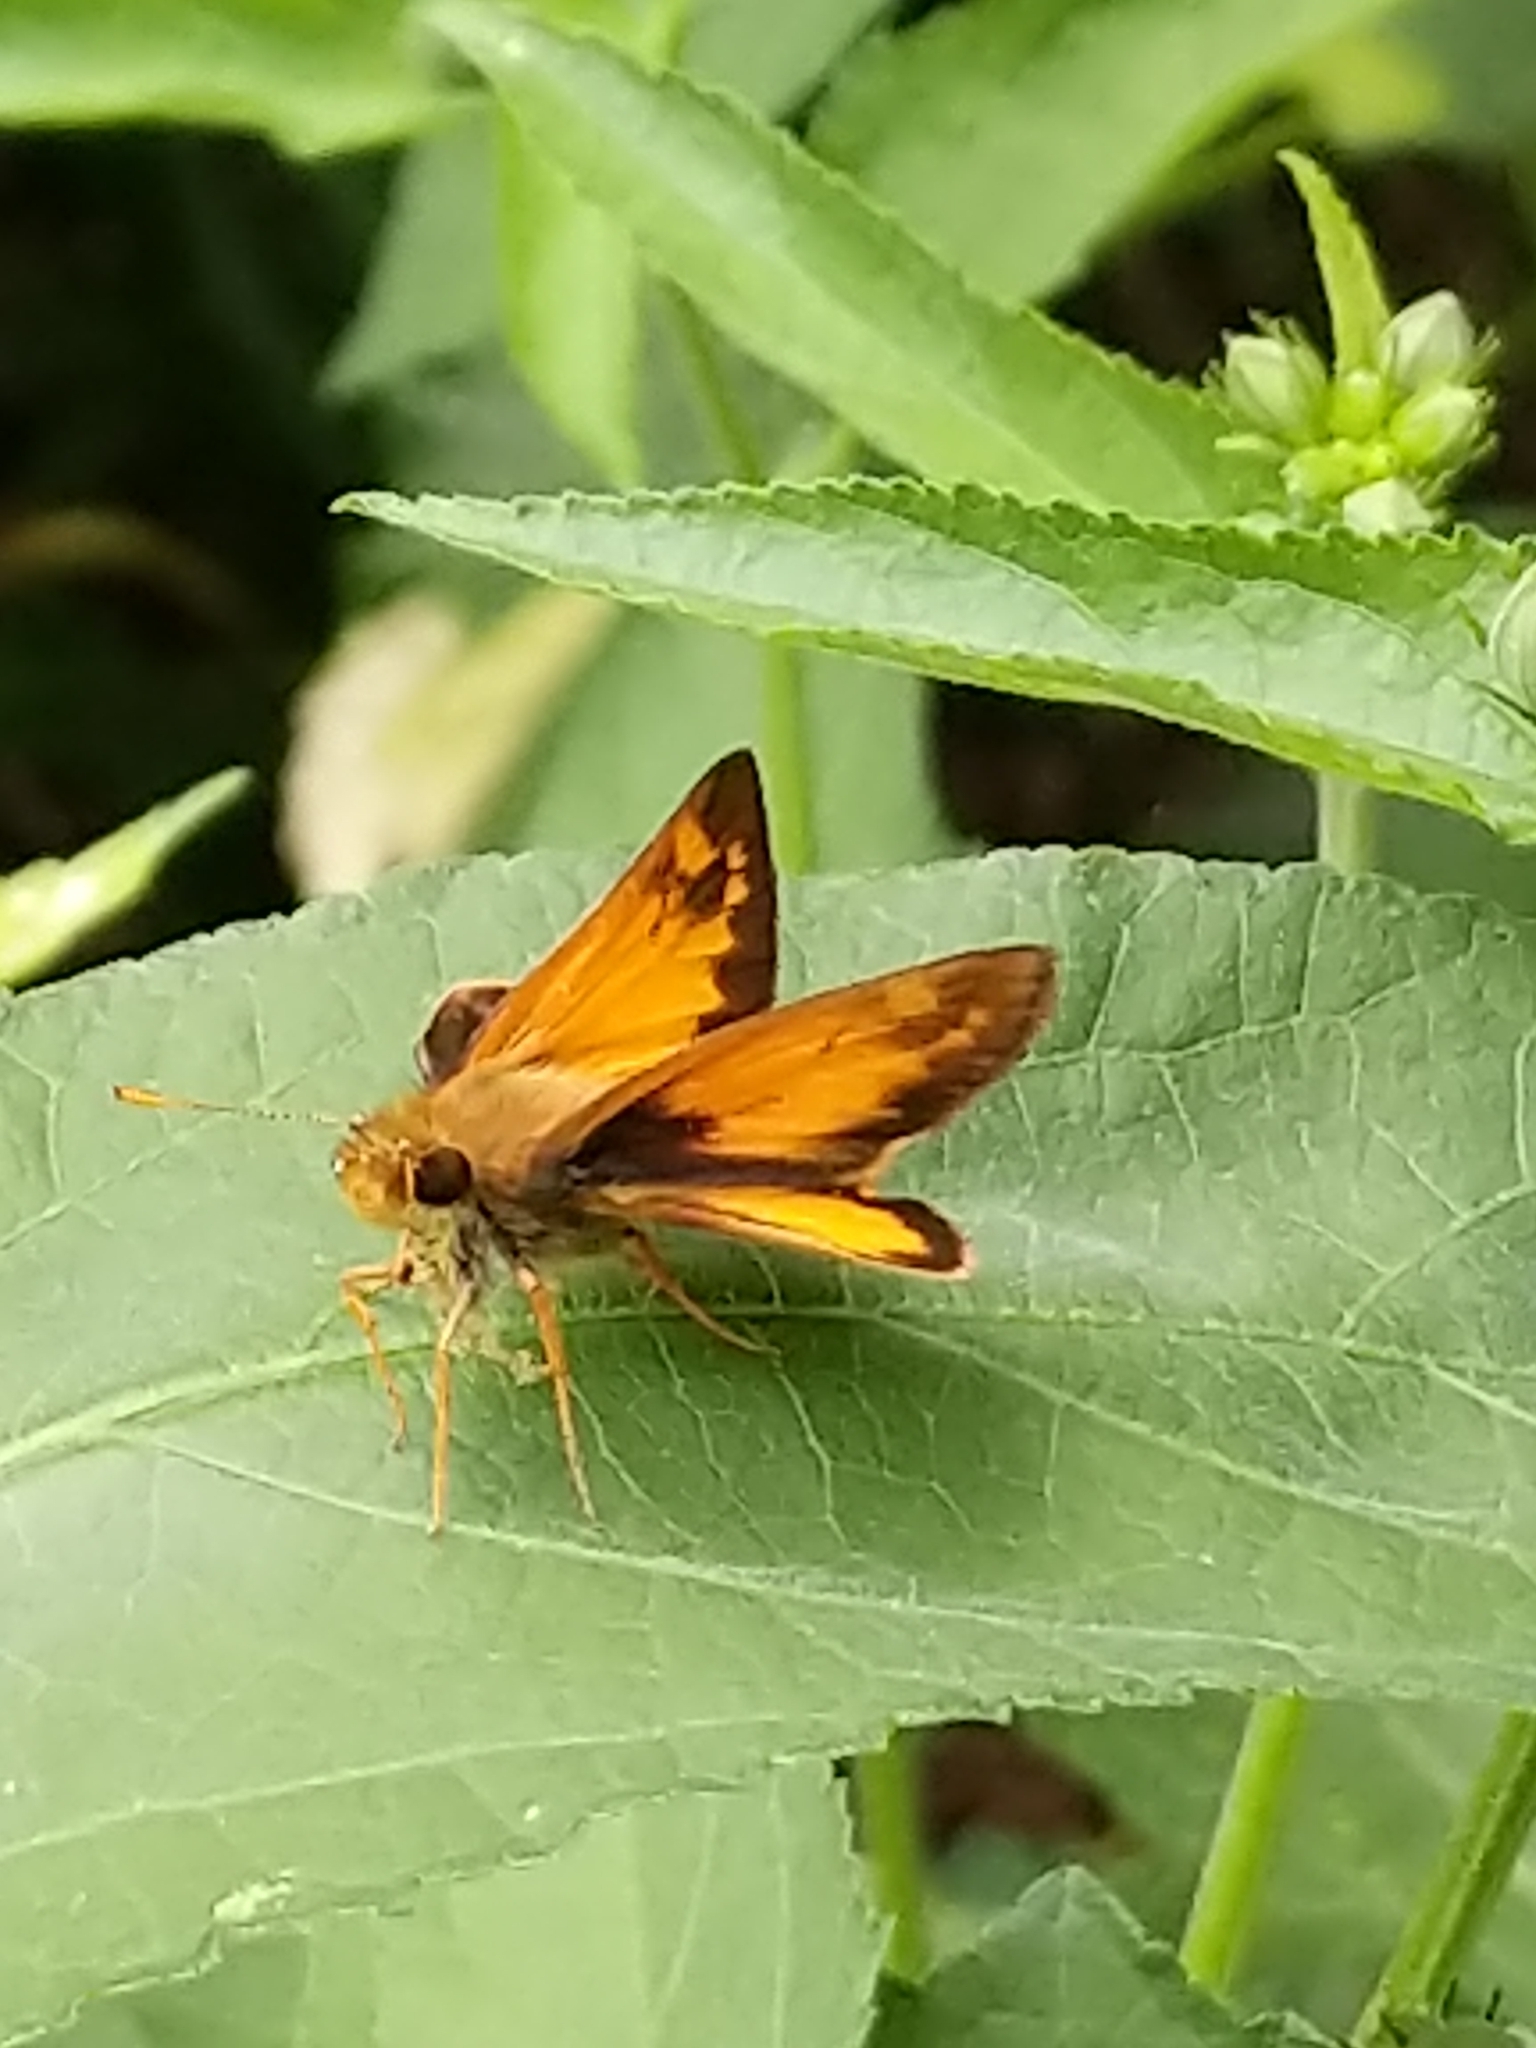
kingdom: Animalia
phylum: Arthropoda
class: Insecta
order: Lepidoptera
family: Hesperiidae
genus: Lon
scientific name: Lon zabulon
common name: Zabulon skipper
